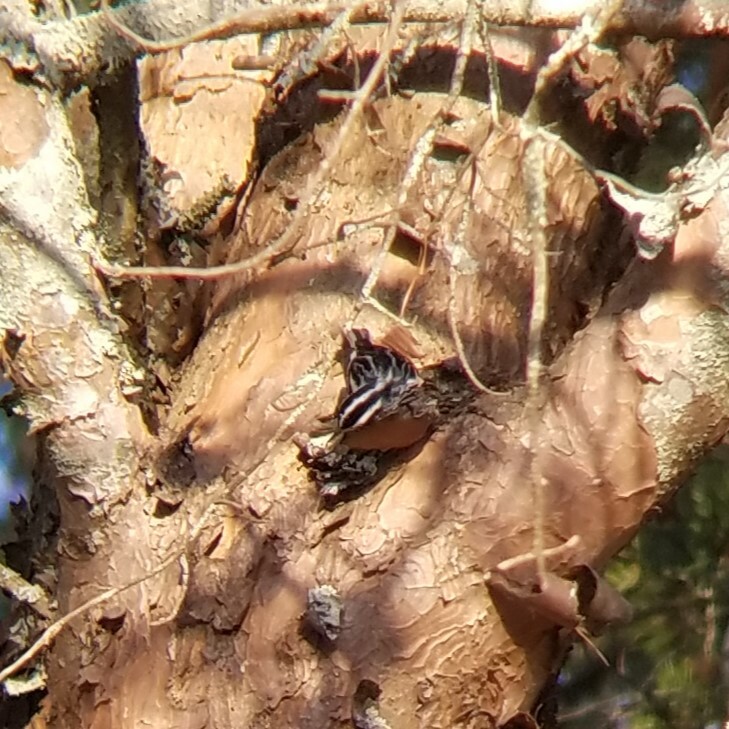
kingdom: Animalia
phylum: Chordata
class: Aves
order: Passeriformes
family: Parulidae
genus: Mniotilta
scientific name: Mniotilta varia
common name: Black-and-white warbler
